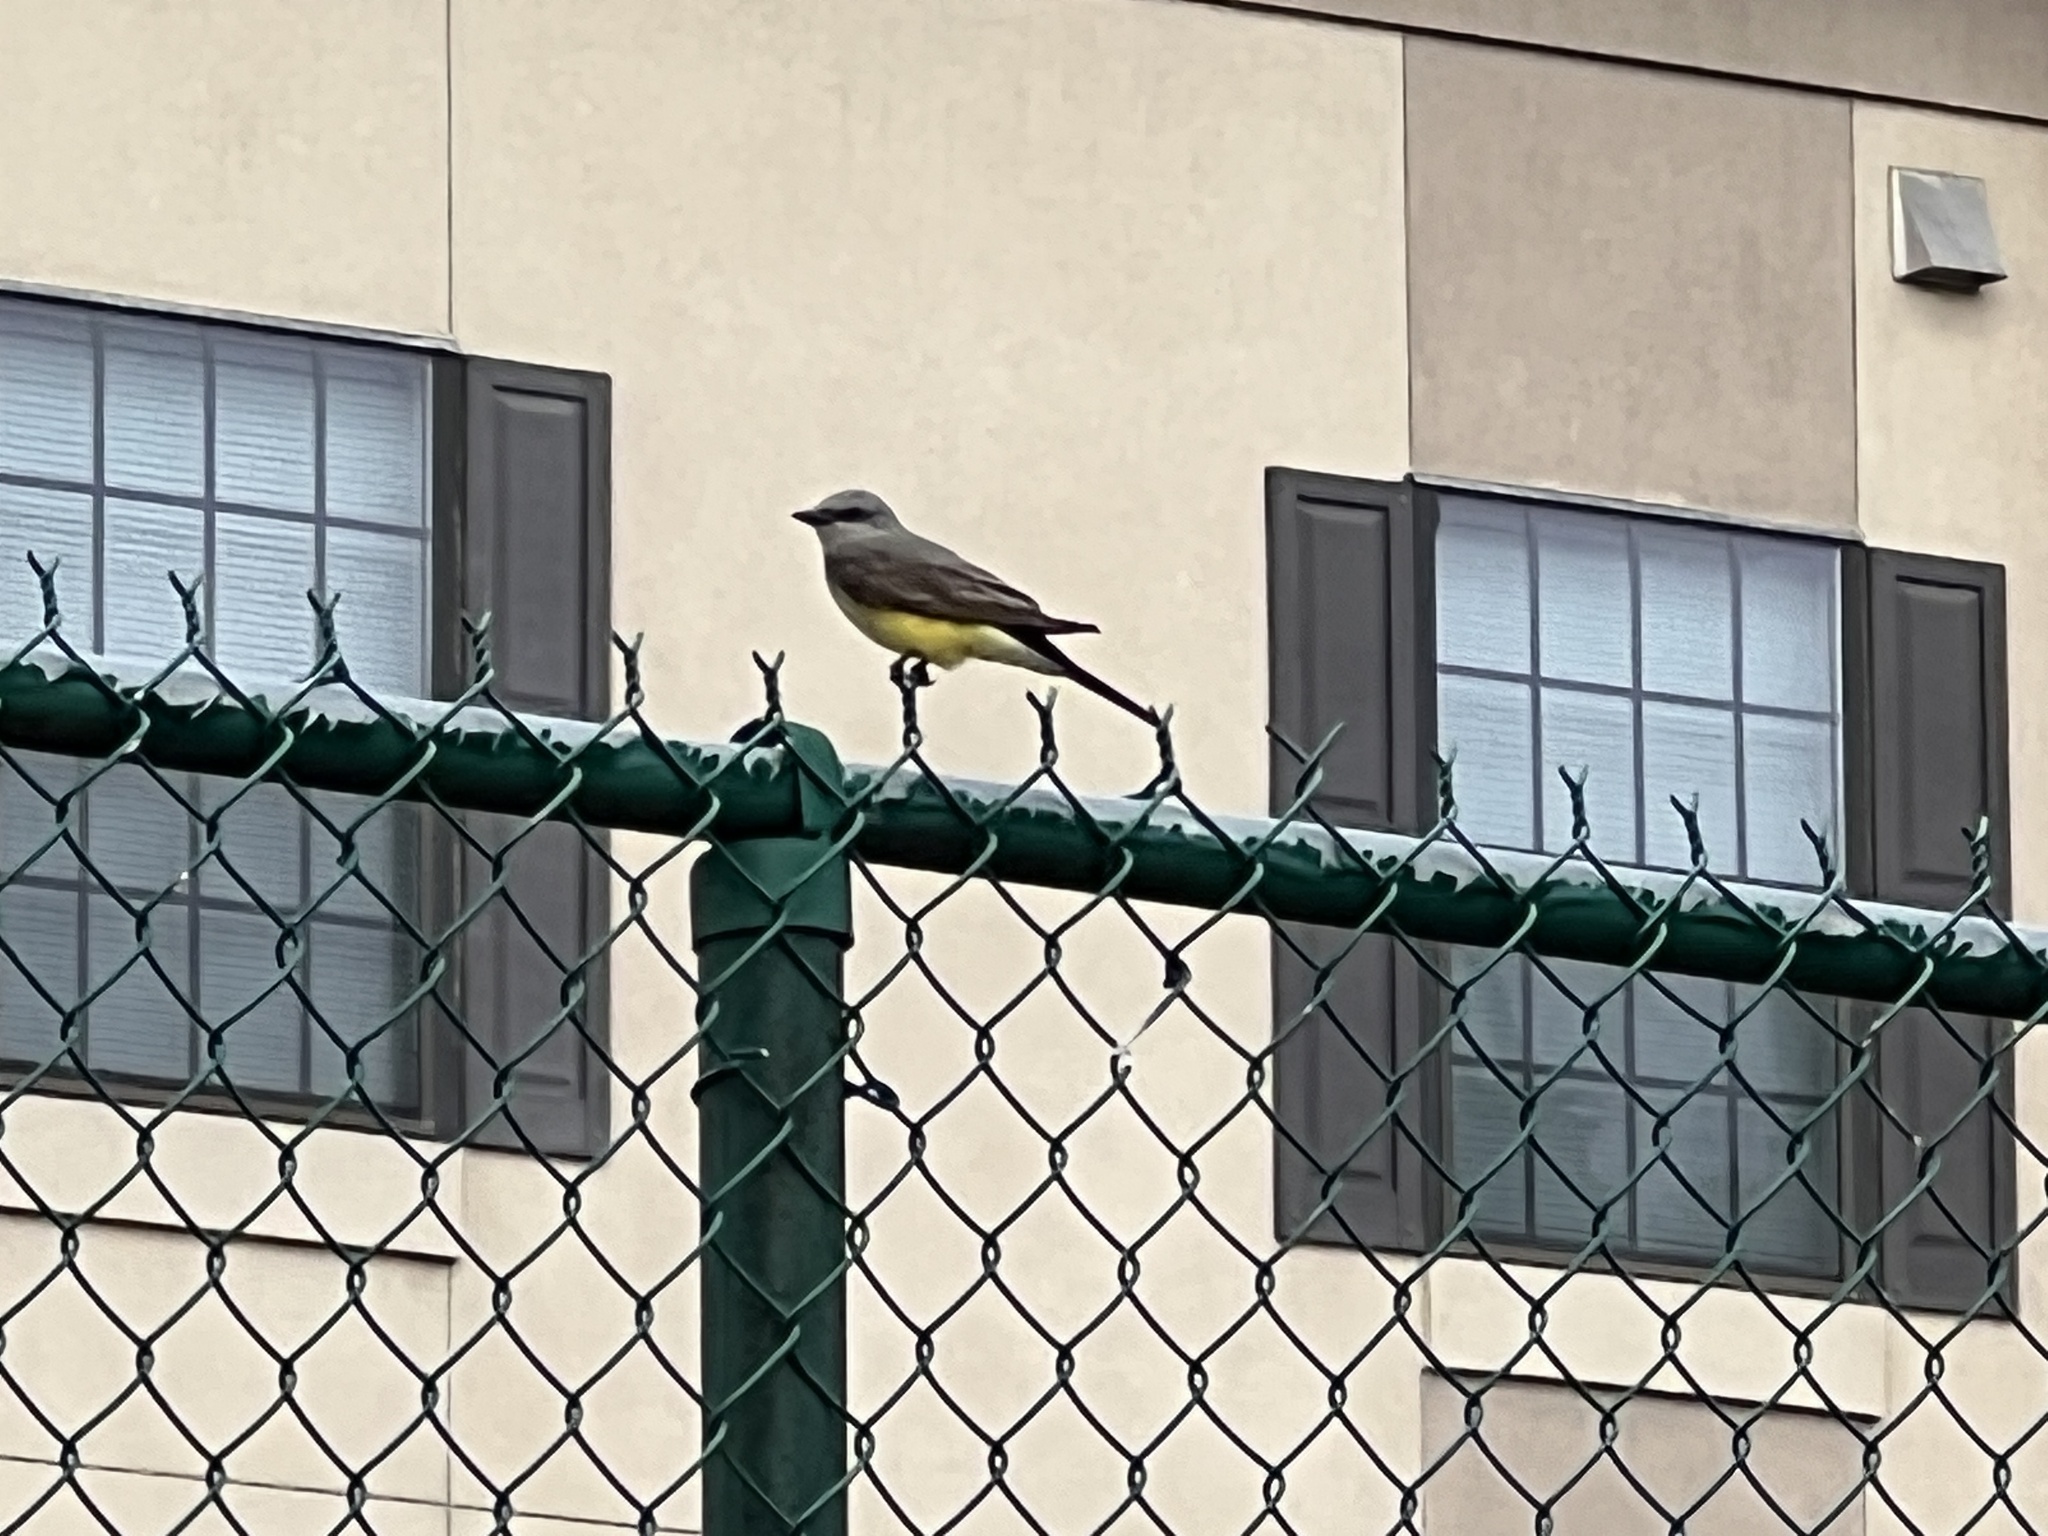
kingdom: Animalia
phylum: Chordata
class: Aves
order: Passeriformes
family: Tyrannidae
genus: Tyrannus
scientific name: Tyrannus verticalis
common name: Western kingbird
